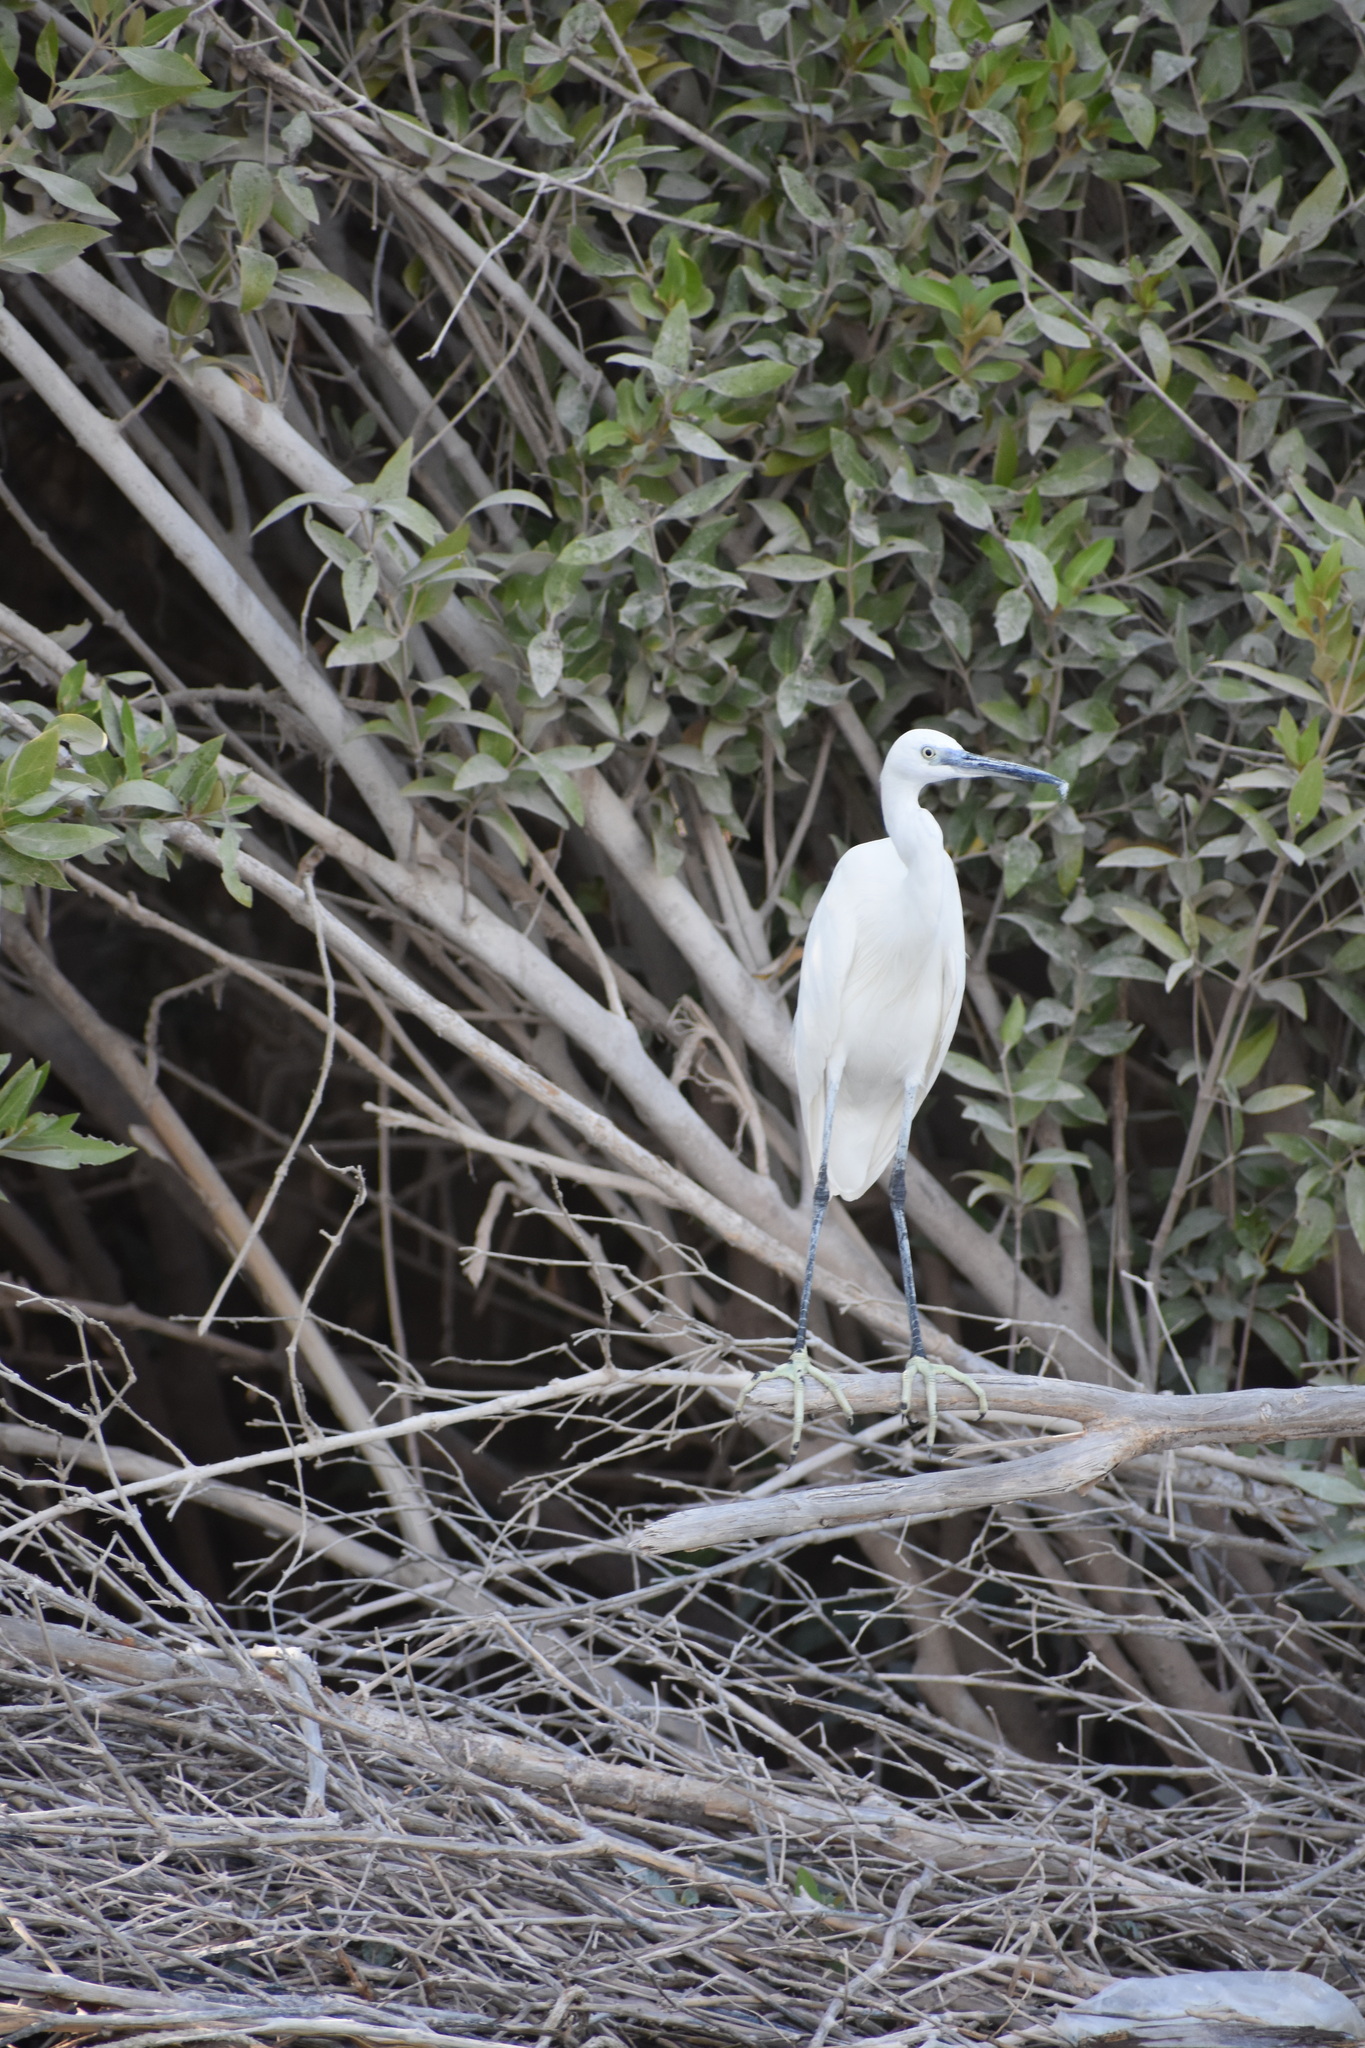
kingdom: Animalia
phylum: Chordata
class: Aves
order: Pelecaniformes
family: Ardeidae
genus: Egretta
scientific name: Egretta garzetta
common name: Little egret
